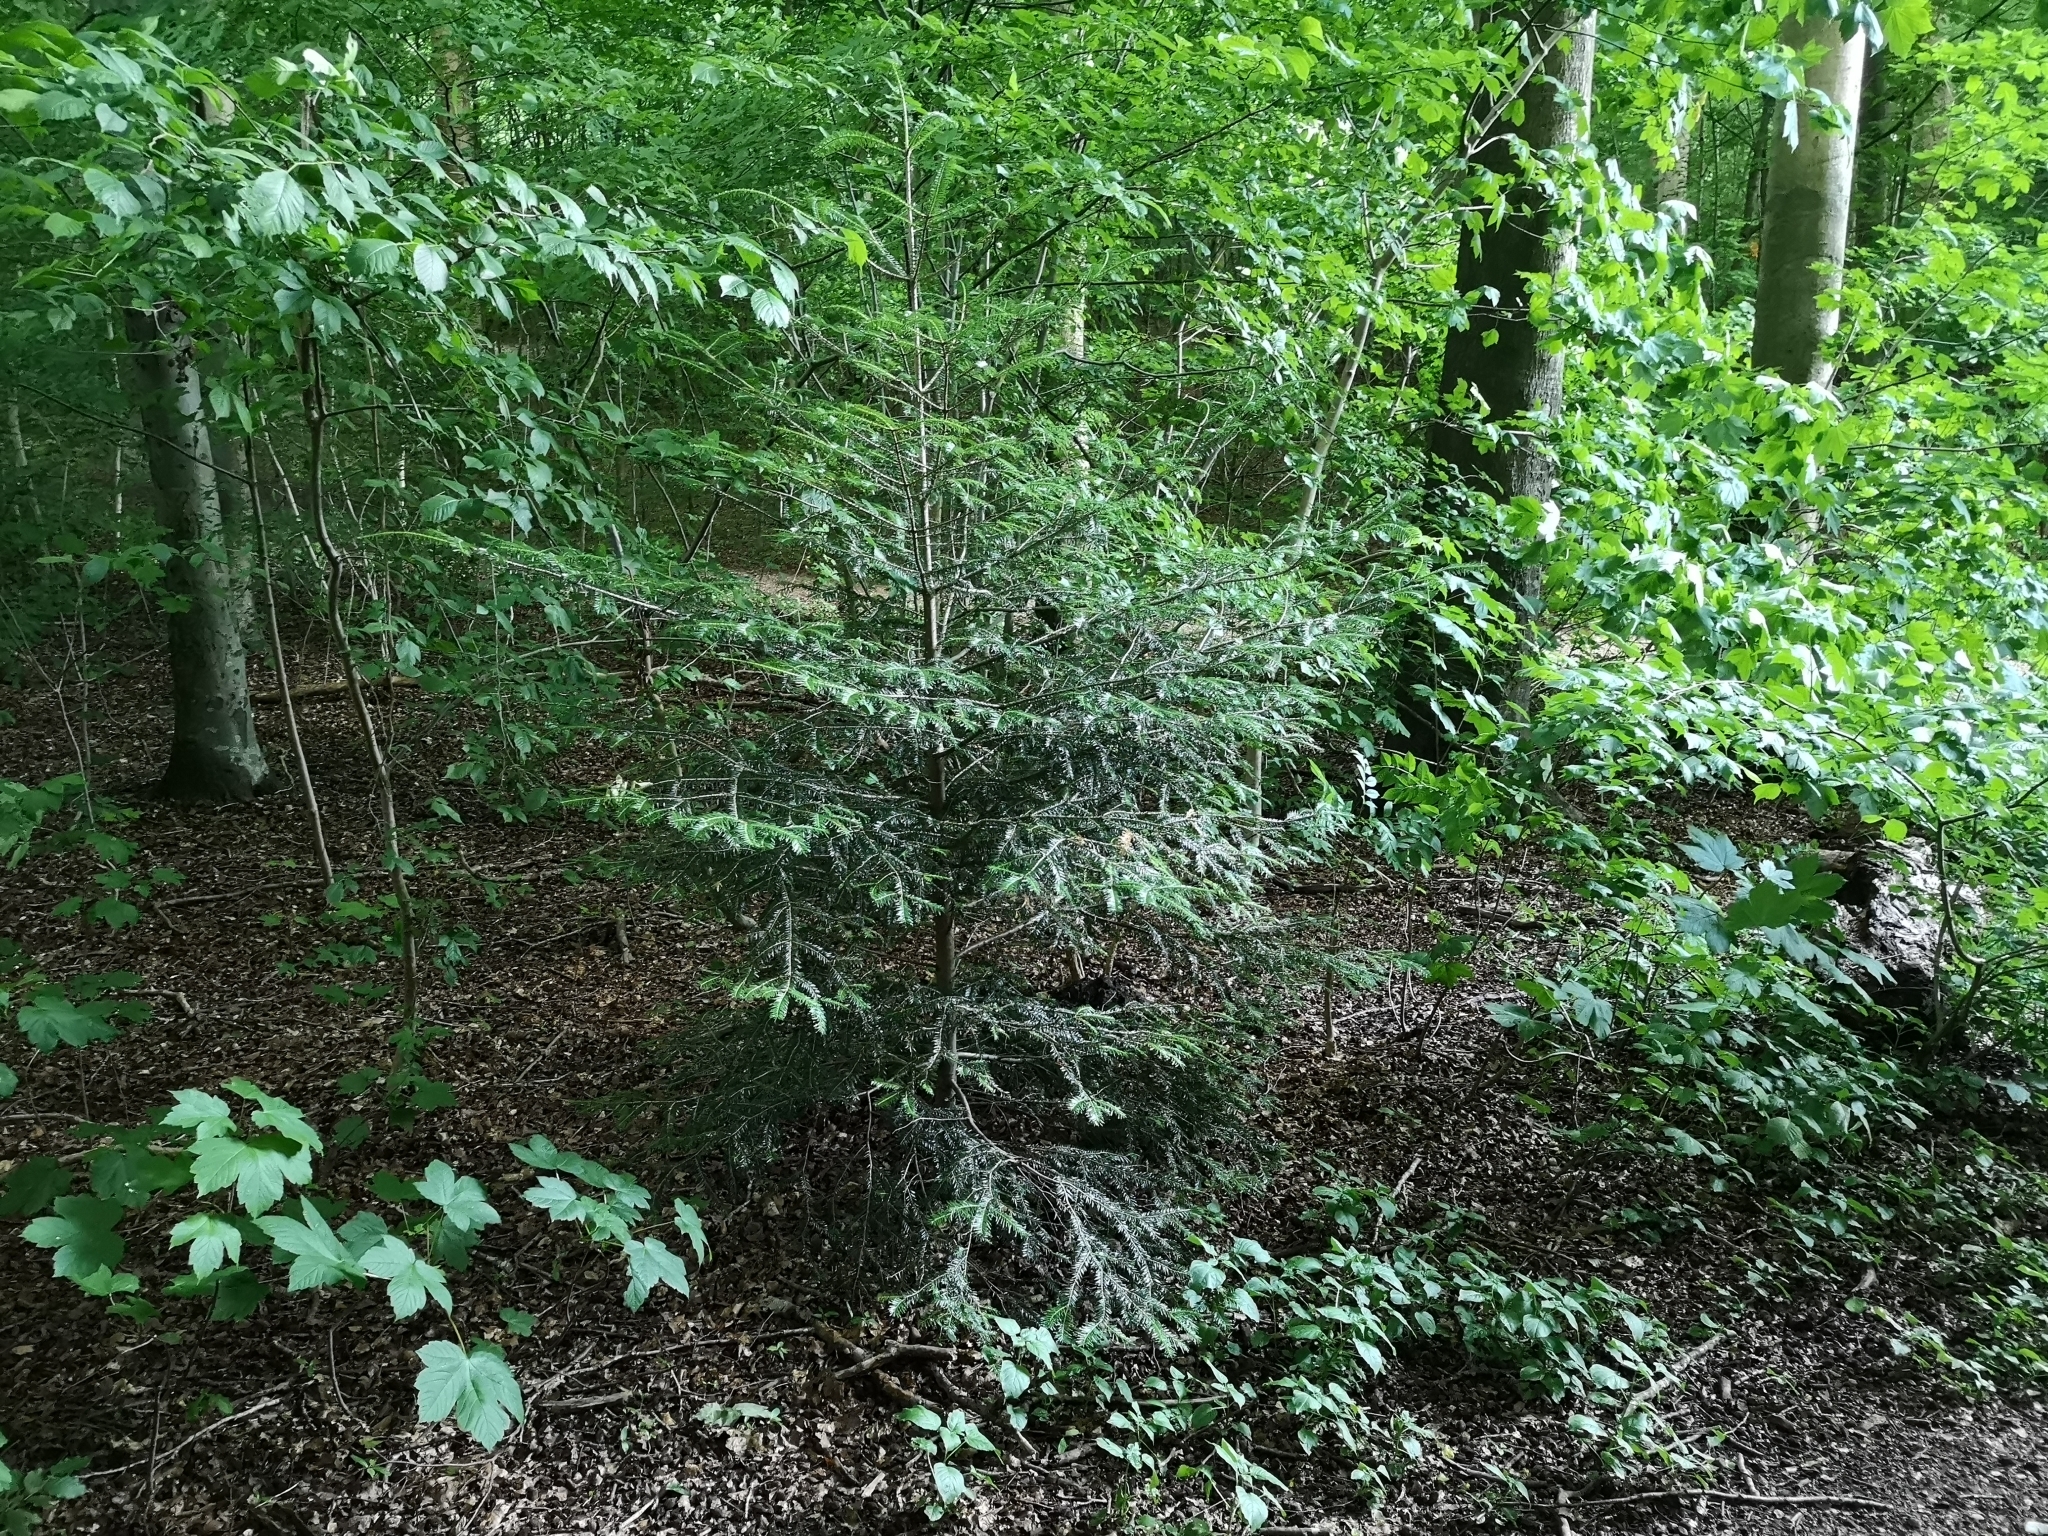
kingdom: Plantae
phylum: Tracheophyta
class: Pinopsida
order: Pinales
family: Pinaceae
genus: Abies
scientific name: Abies alba
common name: Silver fir
